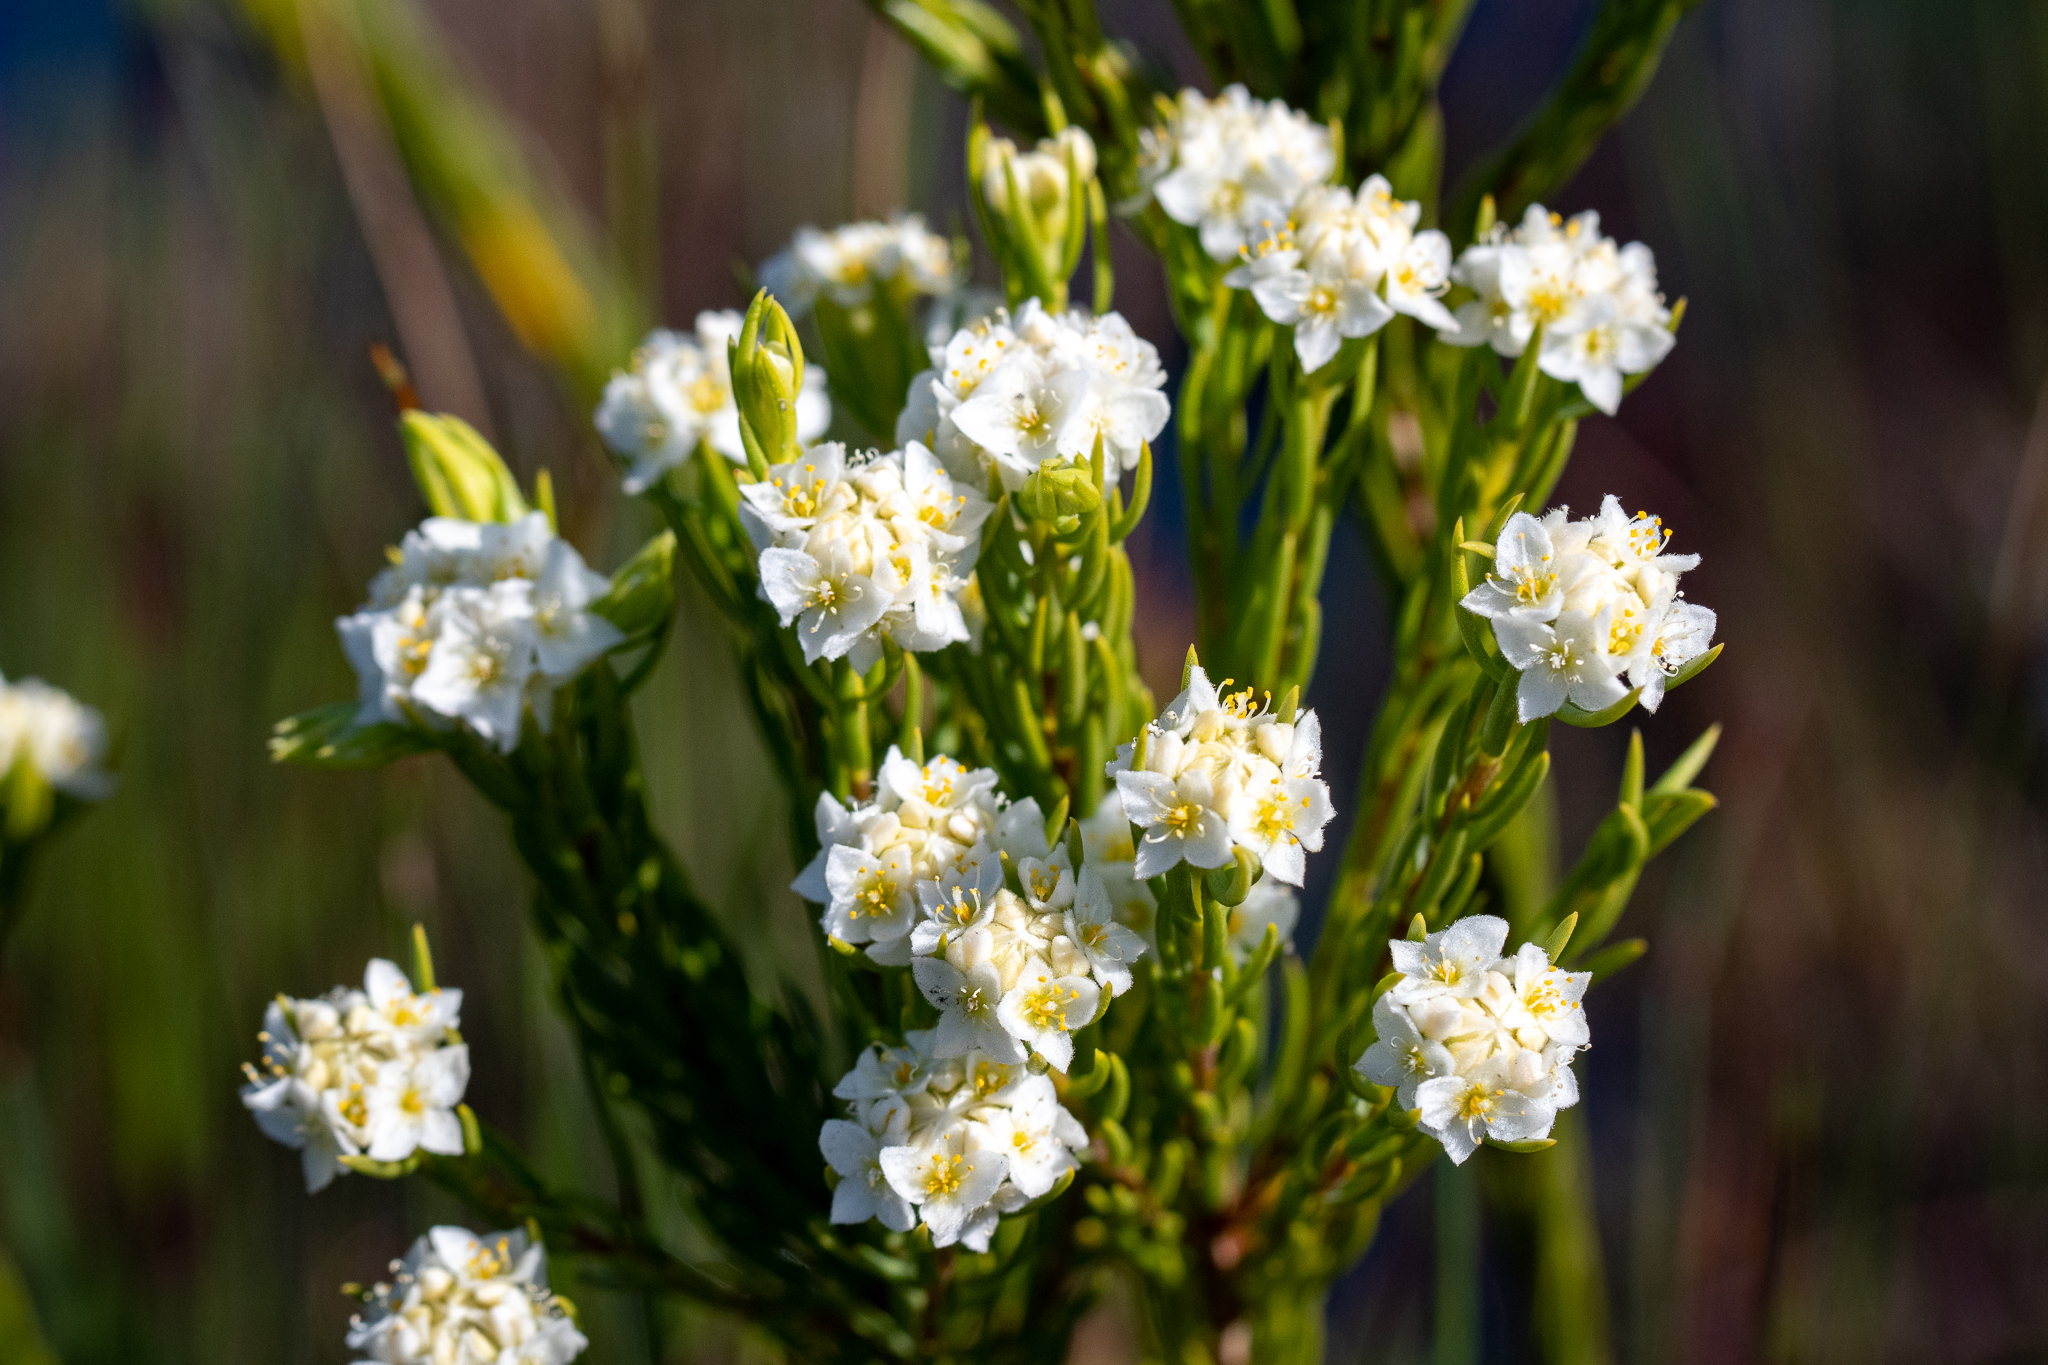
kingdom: Plantae
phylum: Tracheophyta
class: Magnoliopsida
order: Malvales
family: Thymelaeaceae
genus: Lachnaea
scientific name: Lachnaea densiflora
